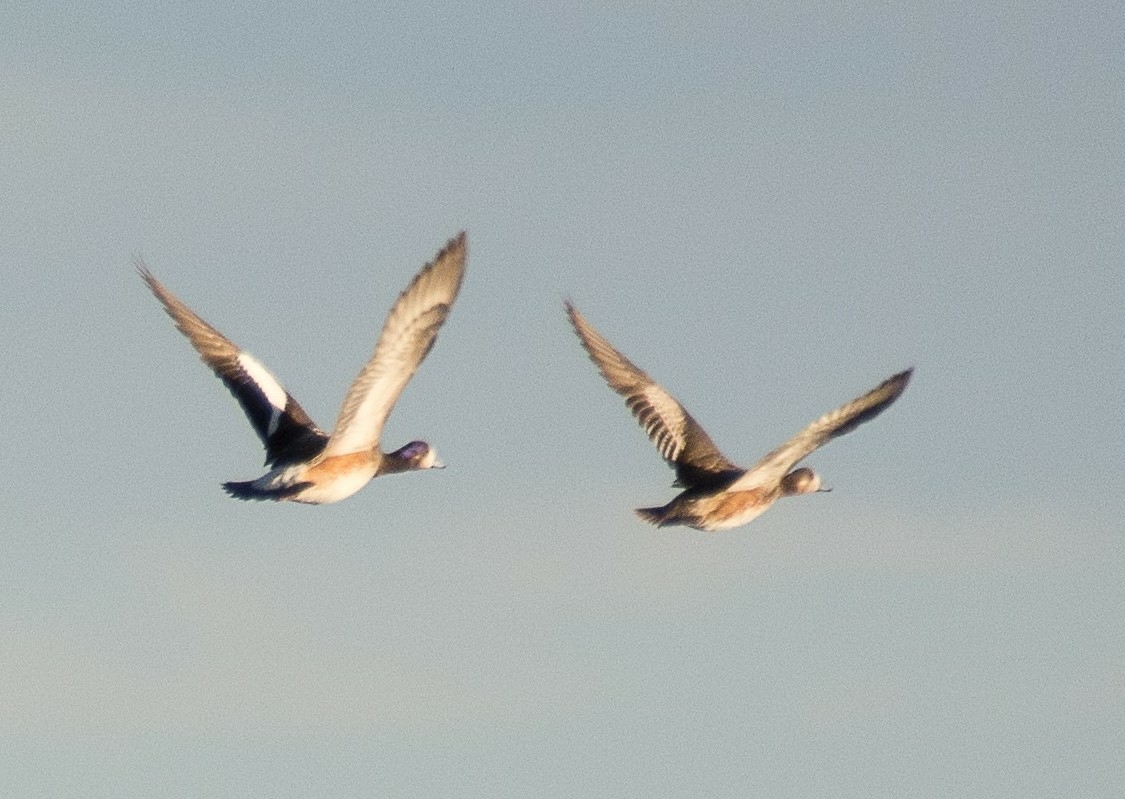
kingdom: Animalia
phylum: Chordata
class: Aves
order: Anseriformes
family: Anatidae
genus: Mareca
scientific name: Mareca sibilatrix
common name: Chiloe wigeon
